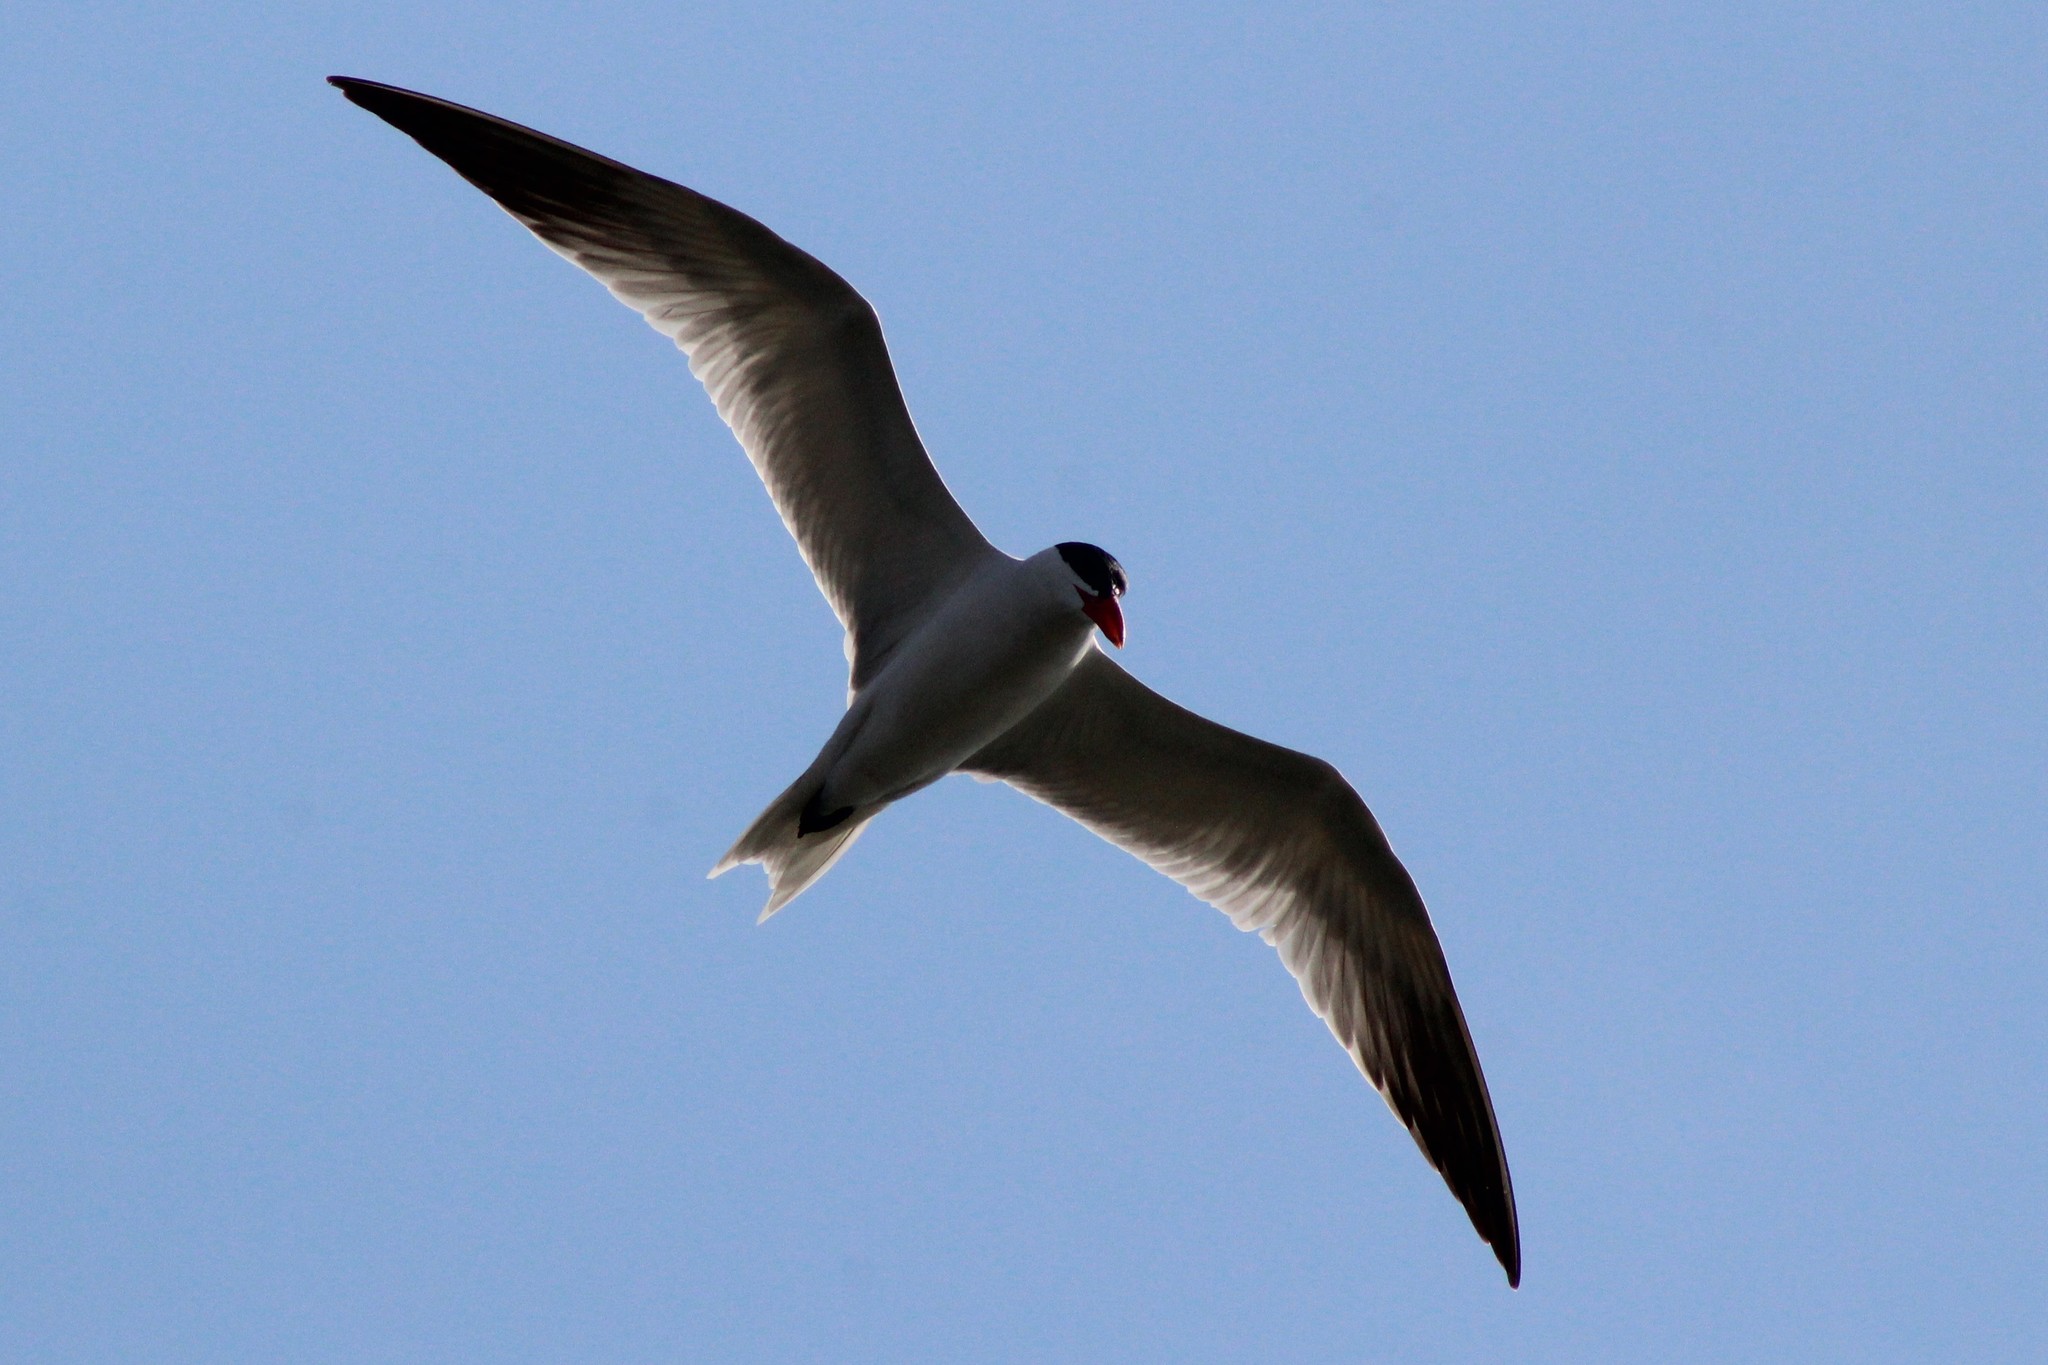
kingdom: Animalia
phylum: Chordata
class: Aves
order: Charadriiformes
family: Laridae
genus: Hydroprogne
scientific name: Hydroprogne caspia
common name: Caspian tern
